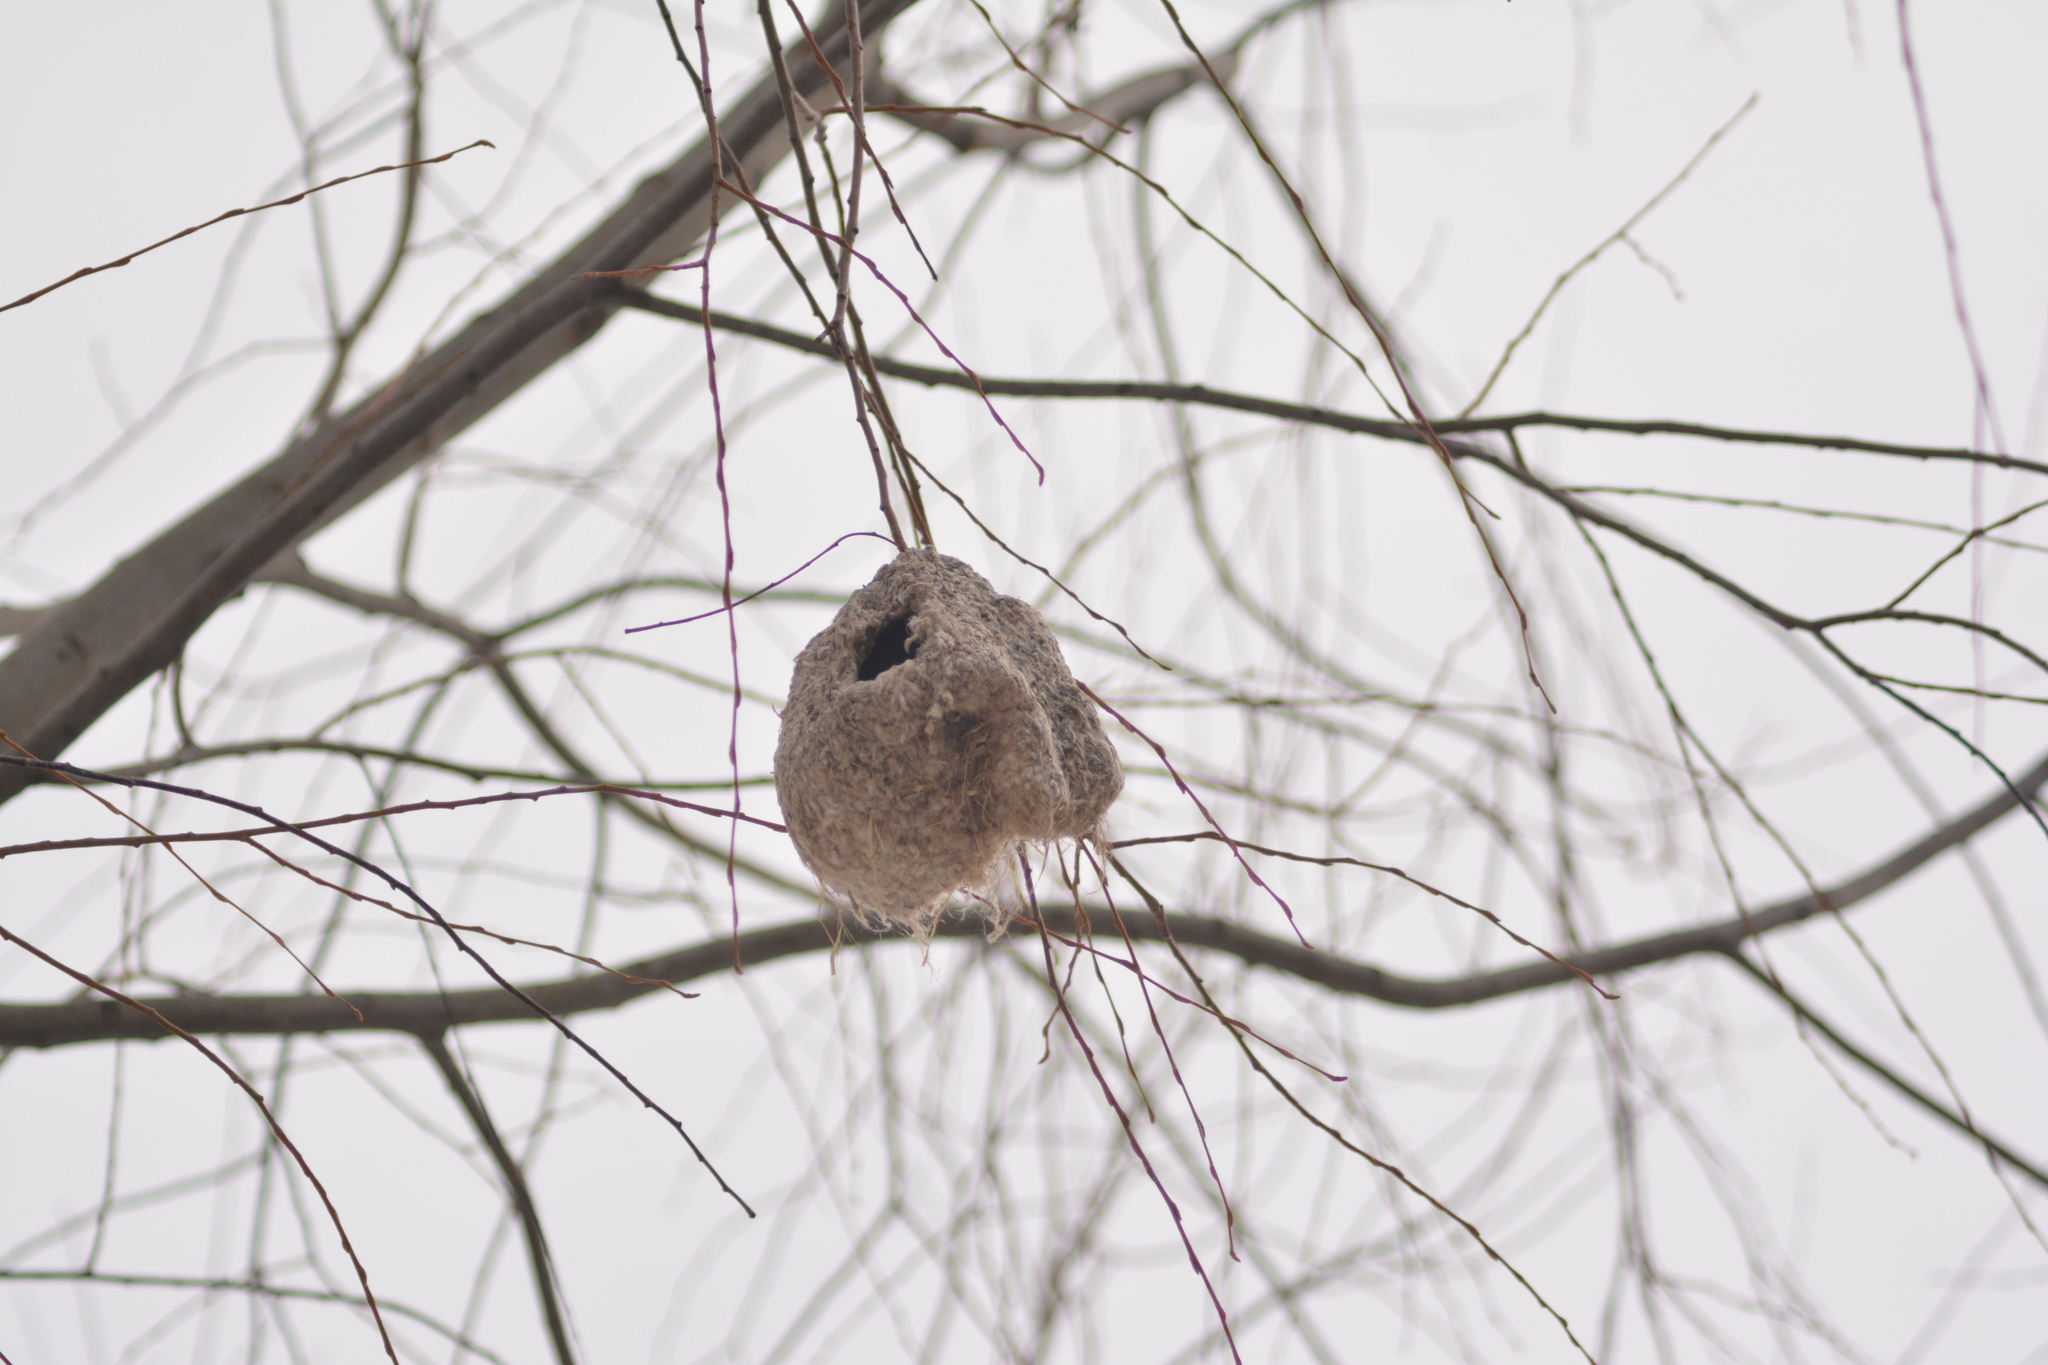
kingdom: Animalia
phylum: Chordata
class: Aves
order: Passeriformes
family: Remizidae
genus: Remiz
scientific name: Remiz pendulinus
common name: Eurasian penduline tit
